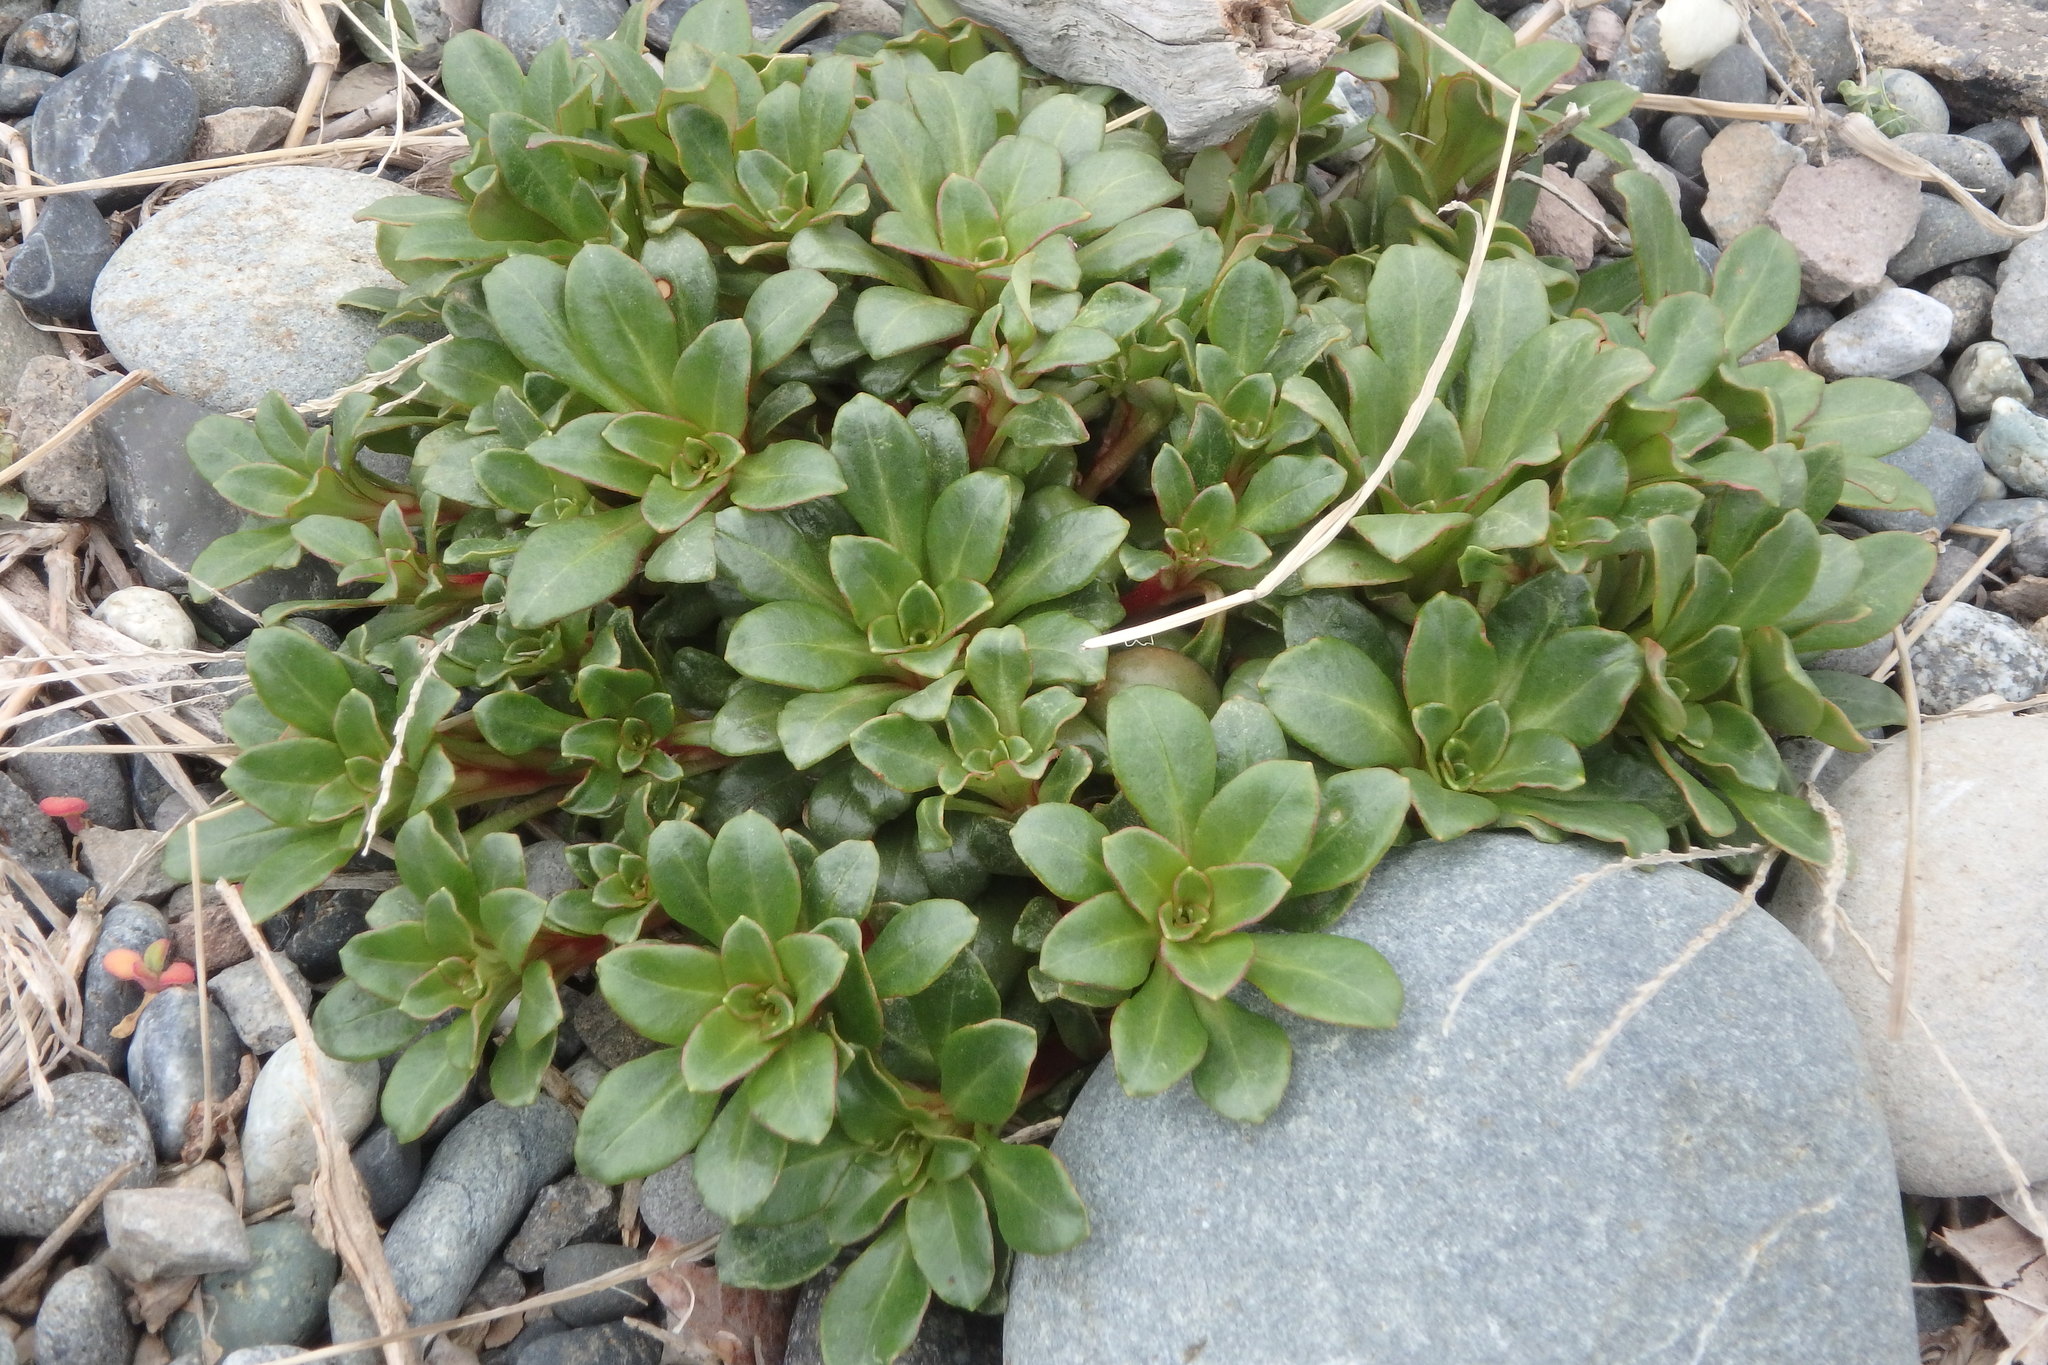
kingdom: Plantae
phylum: Tracheophyta
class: Magnoliopsida
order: Ericales
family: Primulaceae
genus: Lysimachia
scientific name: Lysimachia mauritiana
